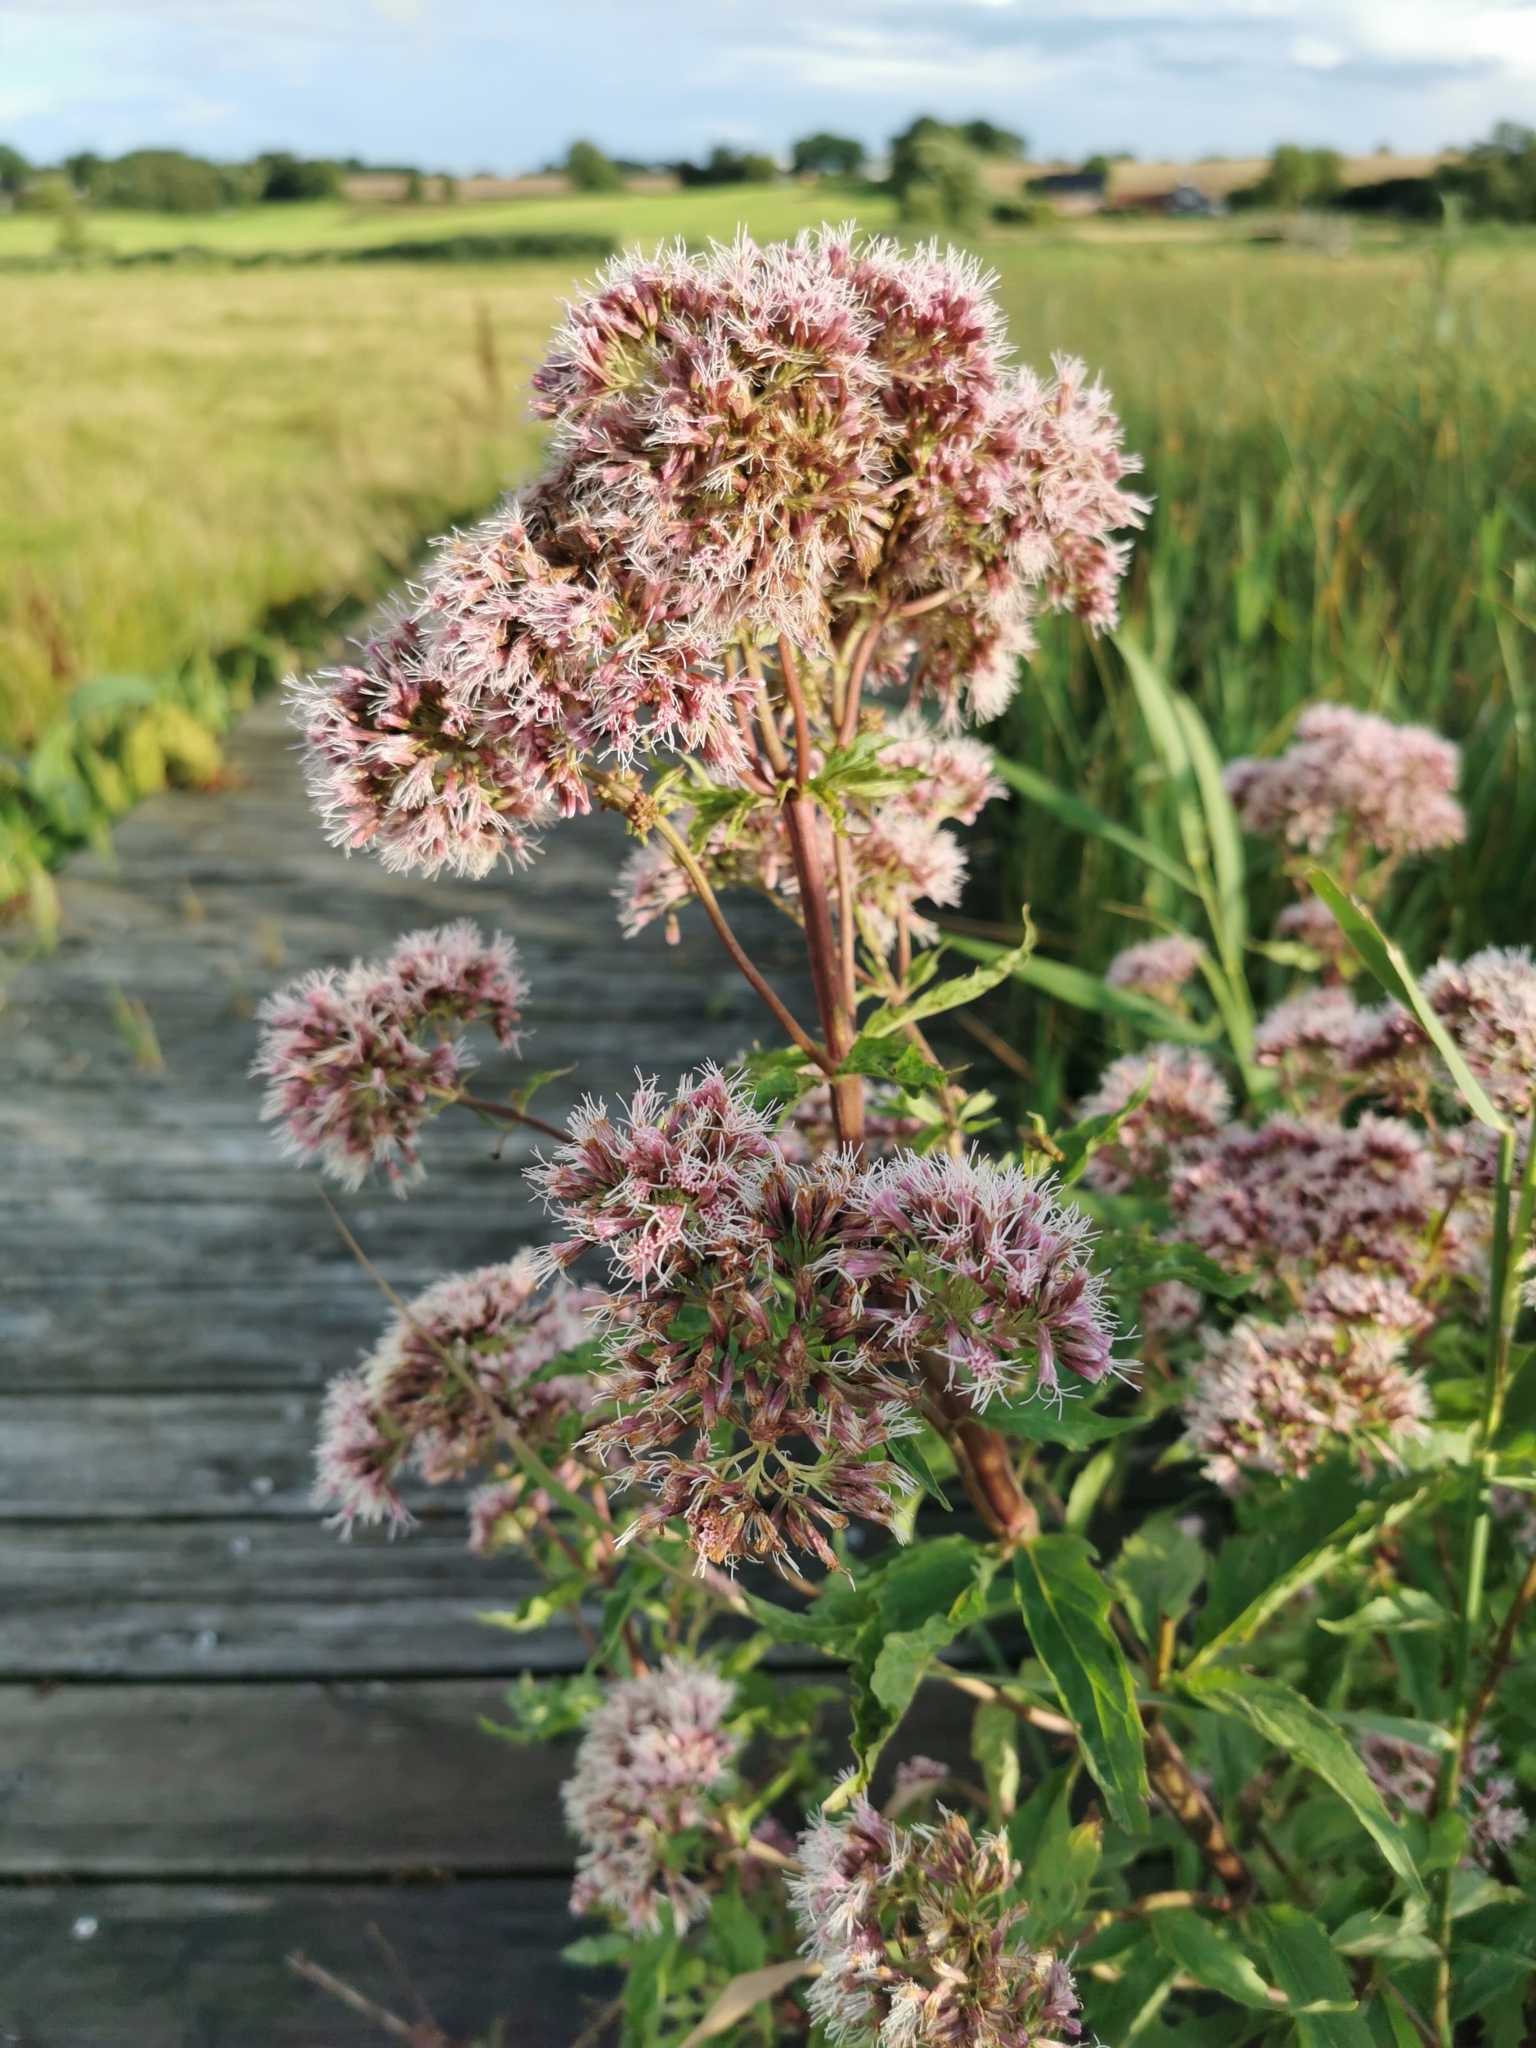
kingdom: Plantae
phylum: Tracheophyta
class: Magnoliopsida
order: Asterales
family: Asteraceae
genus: Eupatorium
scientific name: Eupatorium cannabinum
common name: Hemp-agrimony
